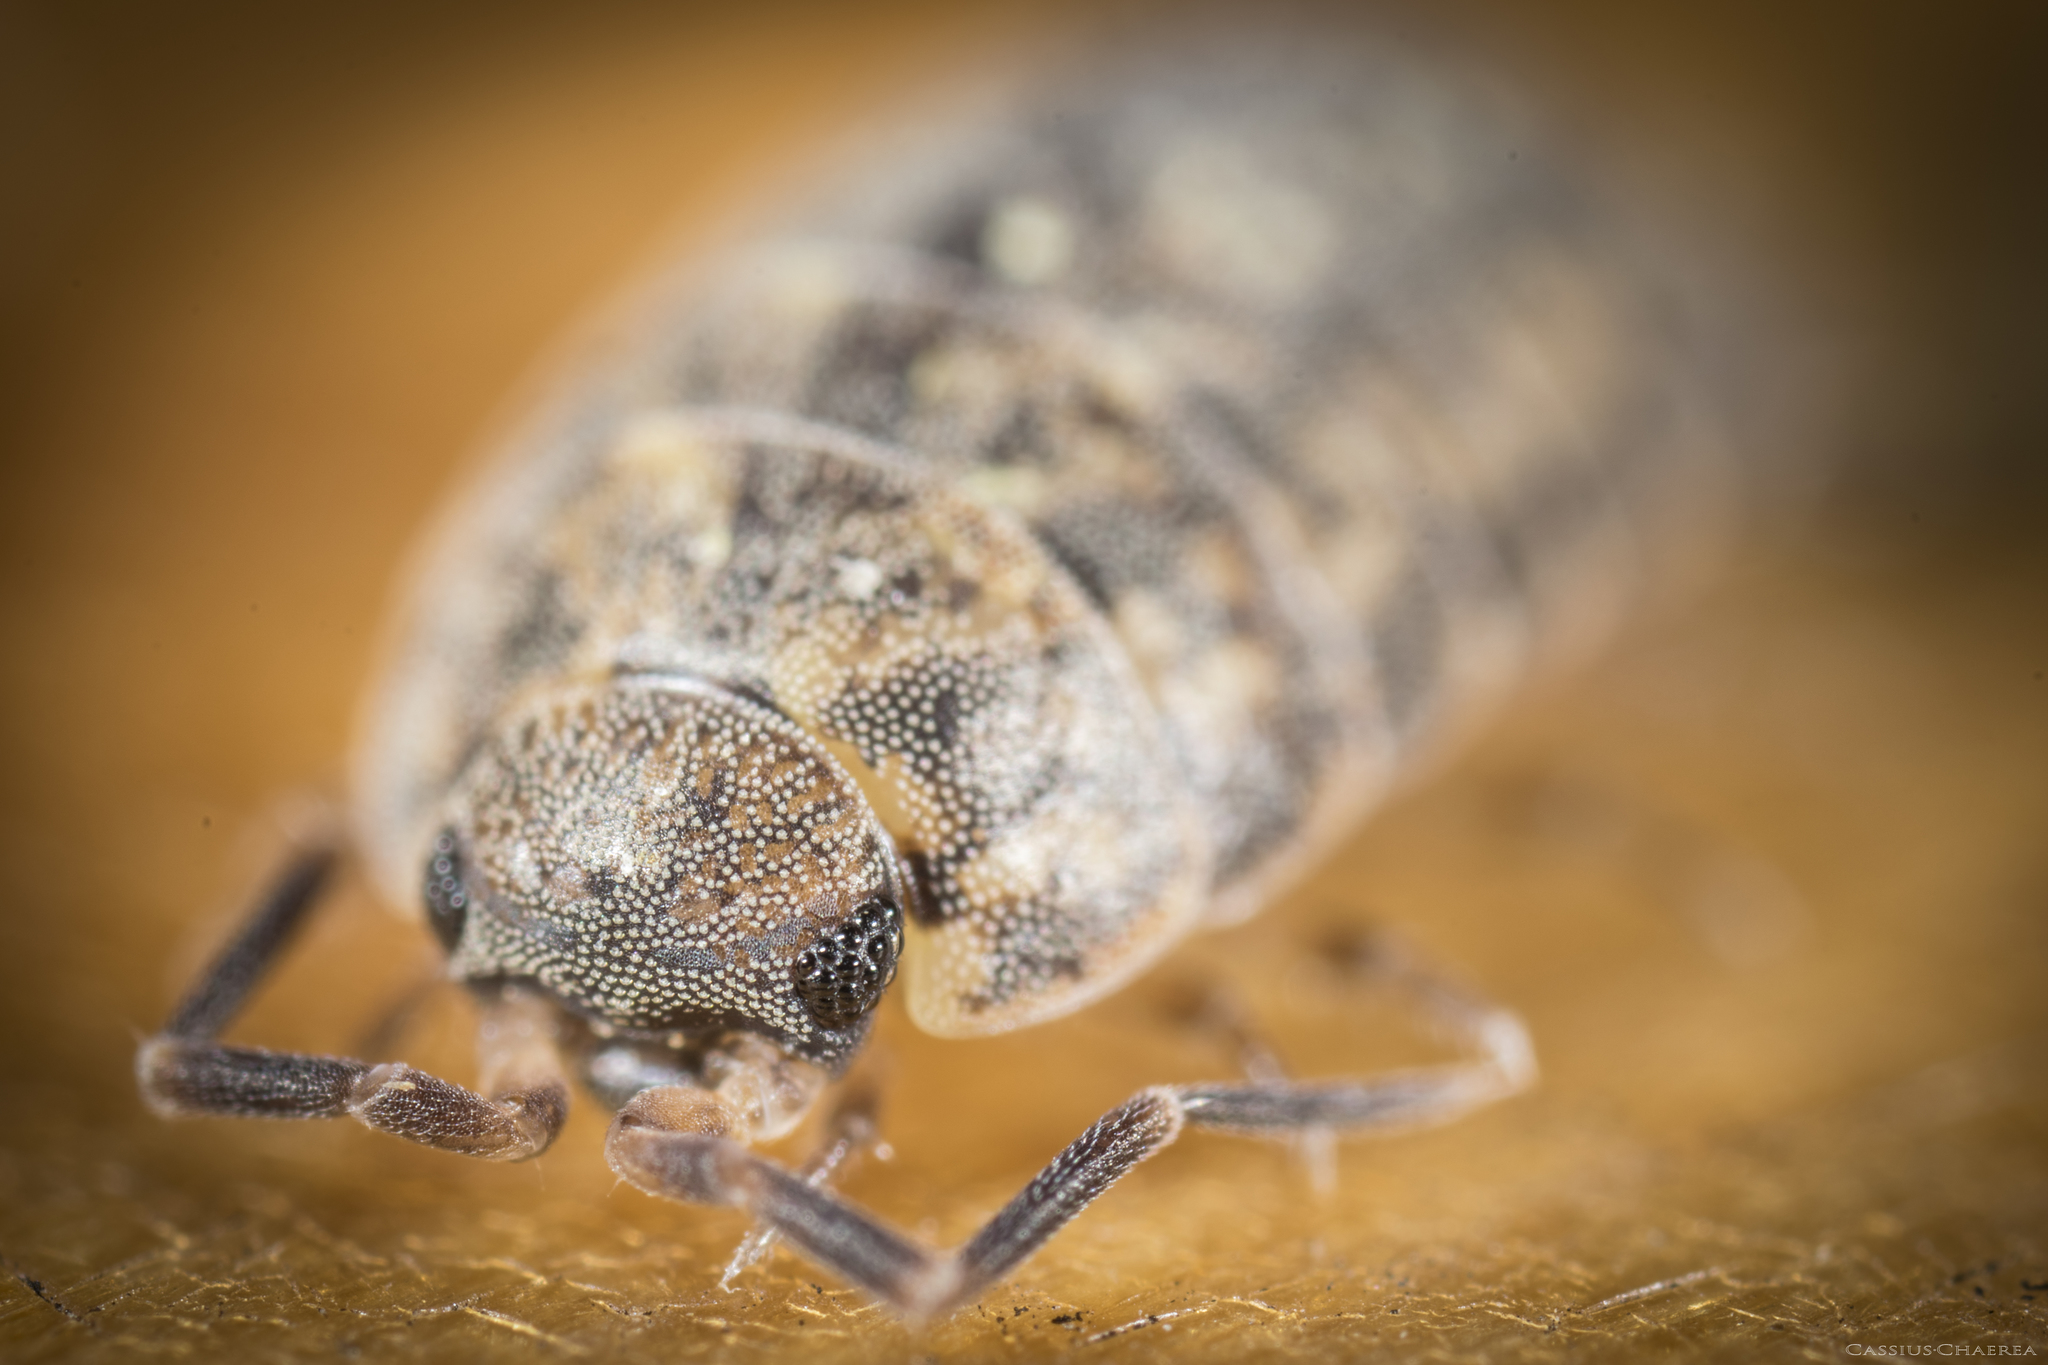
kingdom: Animalia
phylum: Arthropoda
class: Malacostraca
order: Isopoda
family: Philosciidae
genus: Lepidoniscus
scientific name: Lepidoniscus minutus
